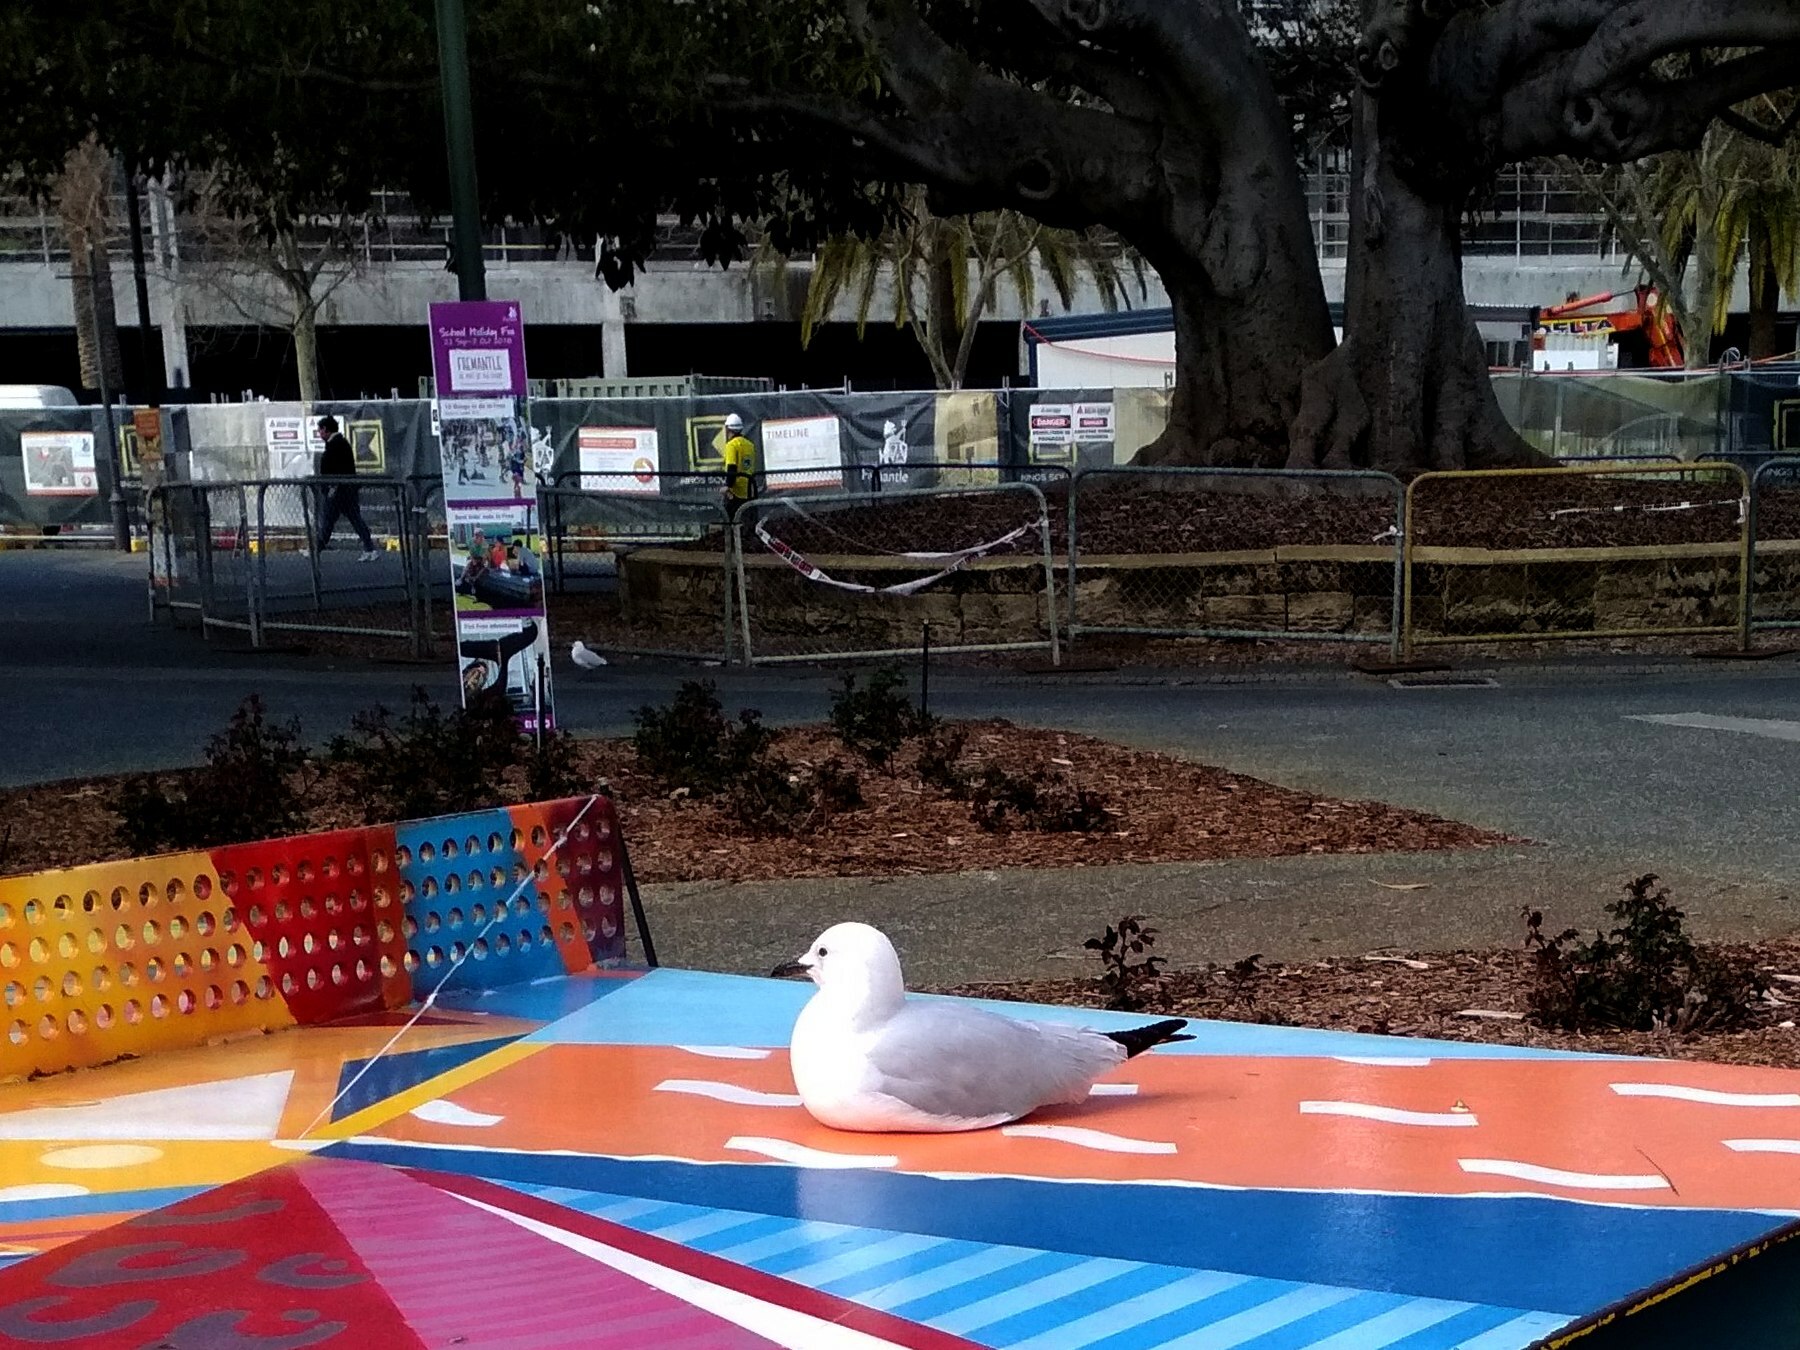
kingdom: Animalia
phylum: Chordata
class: Aves
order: Charadriiformes
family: Laridae
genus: Chroicocephalus
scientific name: Chroicocephalus novaehollandiae
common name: Silver gull
